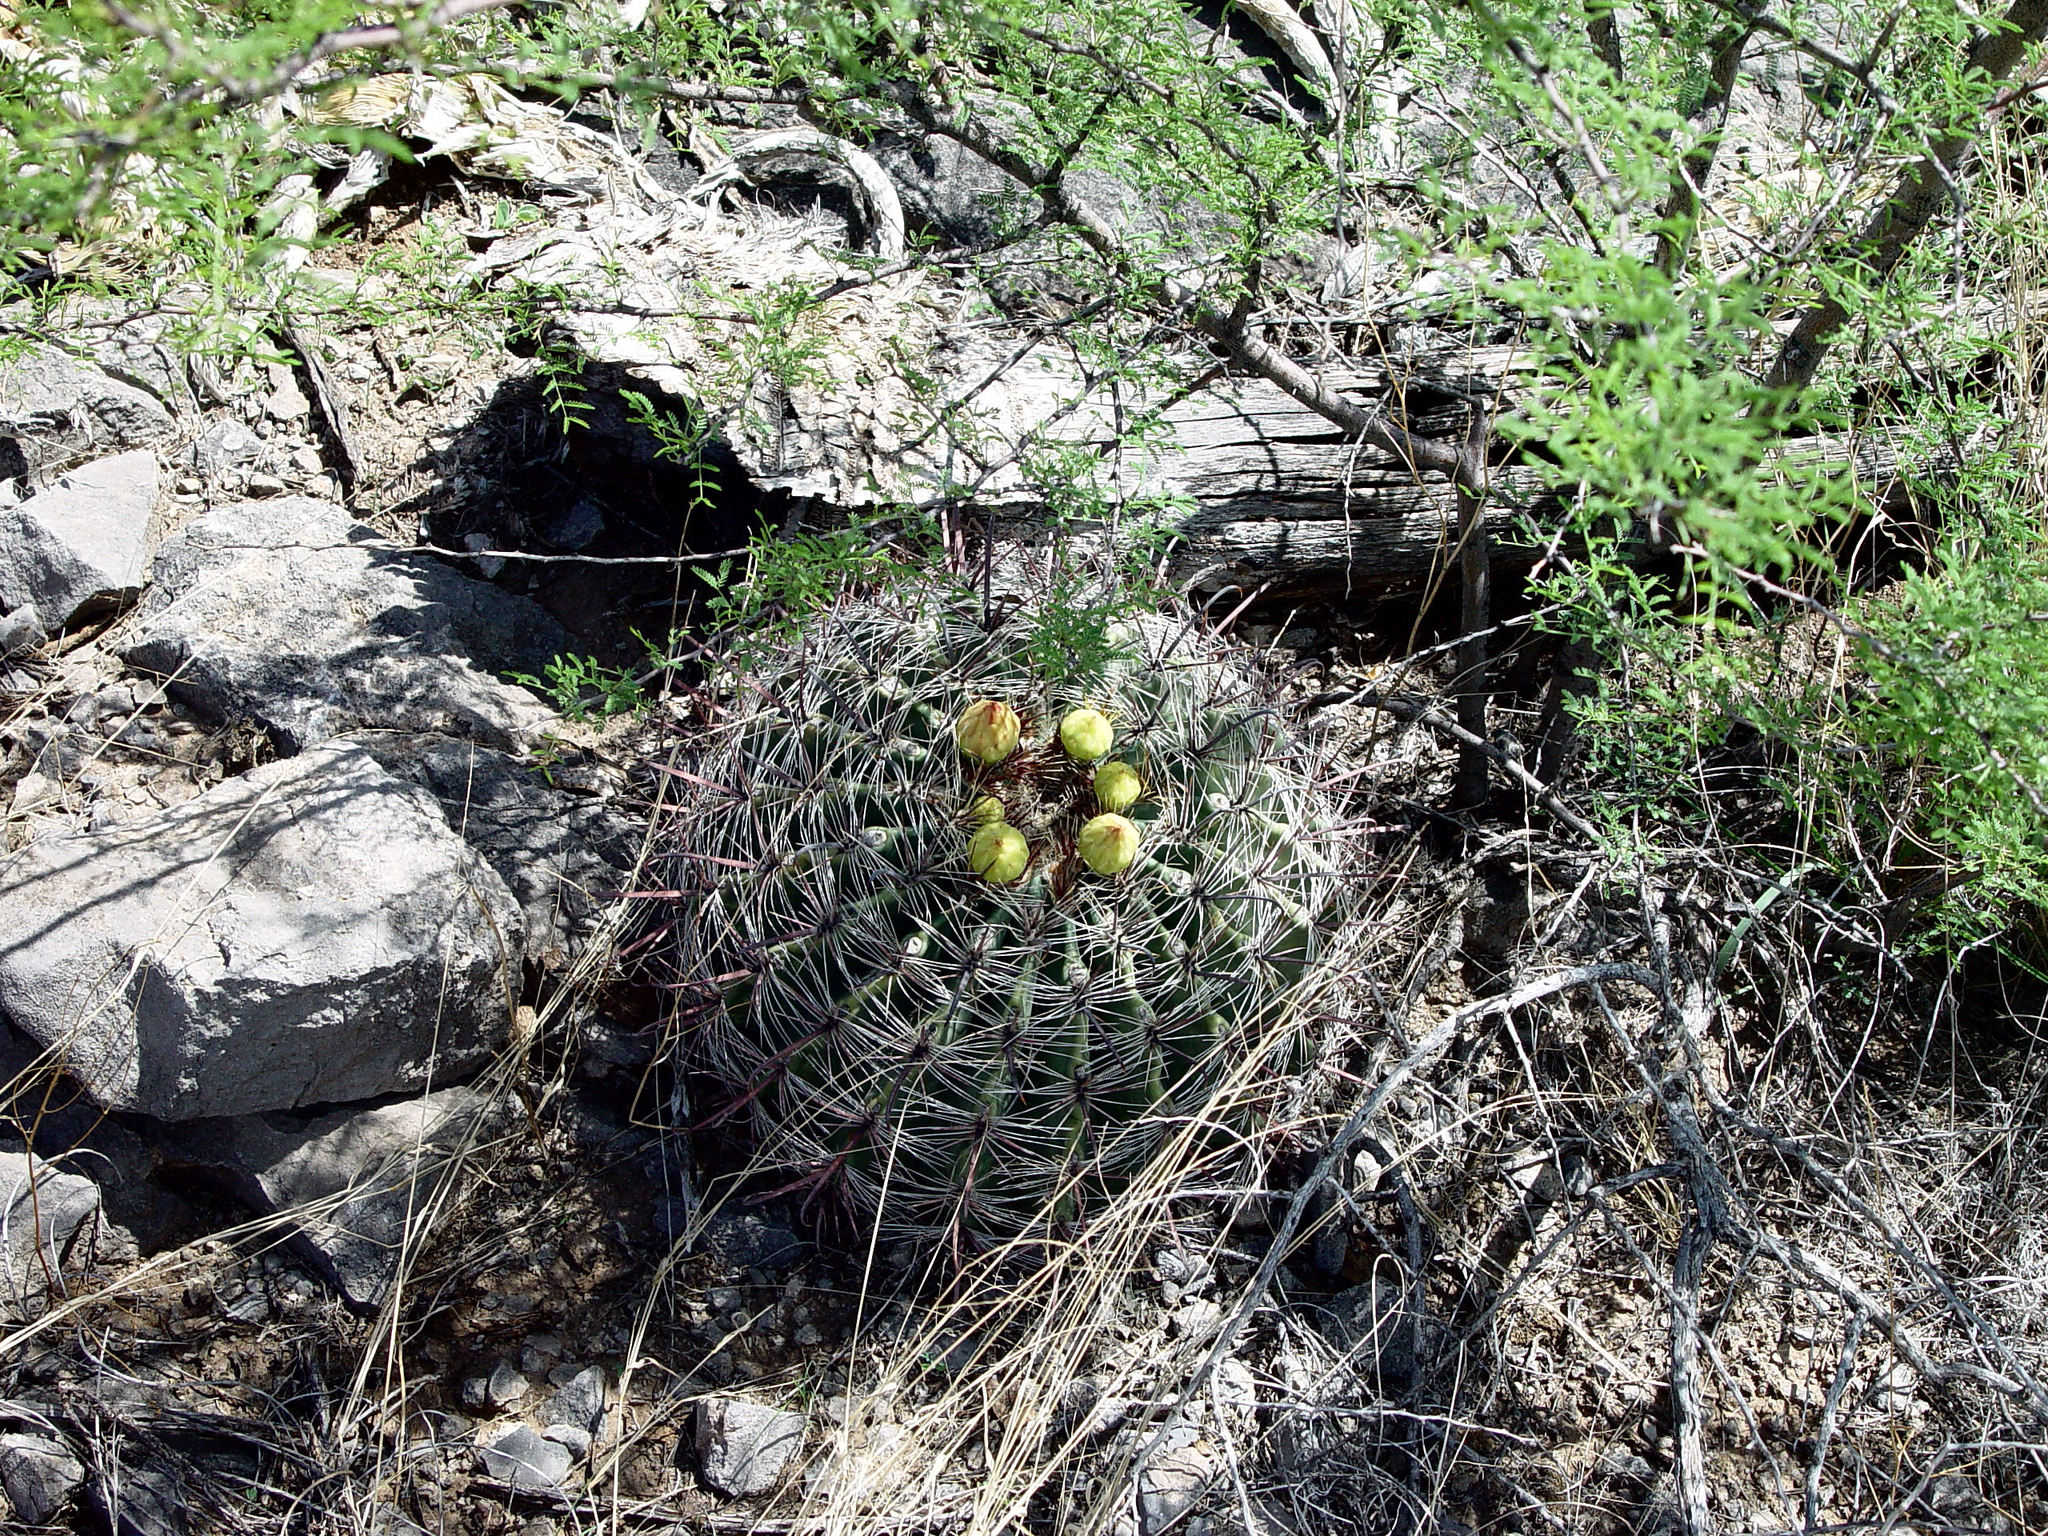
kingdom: Plantae
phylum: Tracheophyta
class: Magnoliopsida
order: Caryophyllales
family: Cactaceae
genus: Ferocactus
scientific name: Ferocactus wislizeni
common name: Candy barrel cactus
